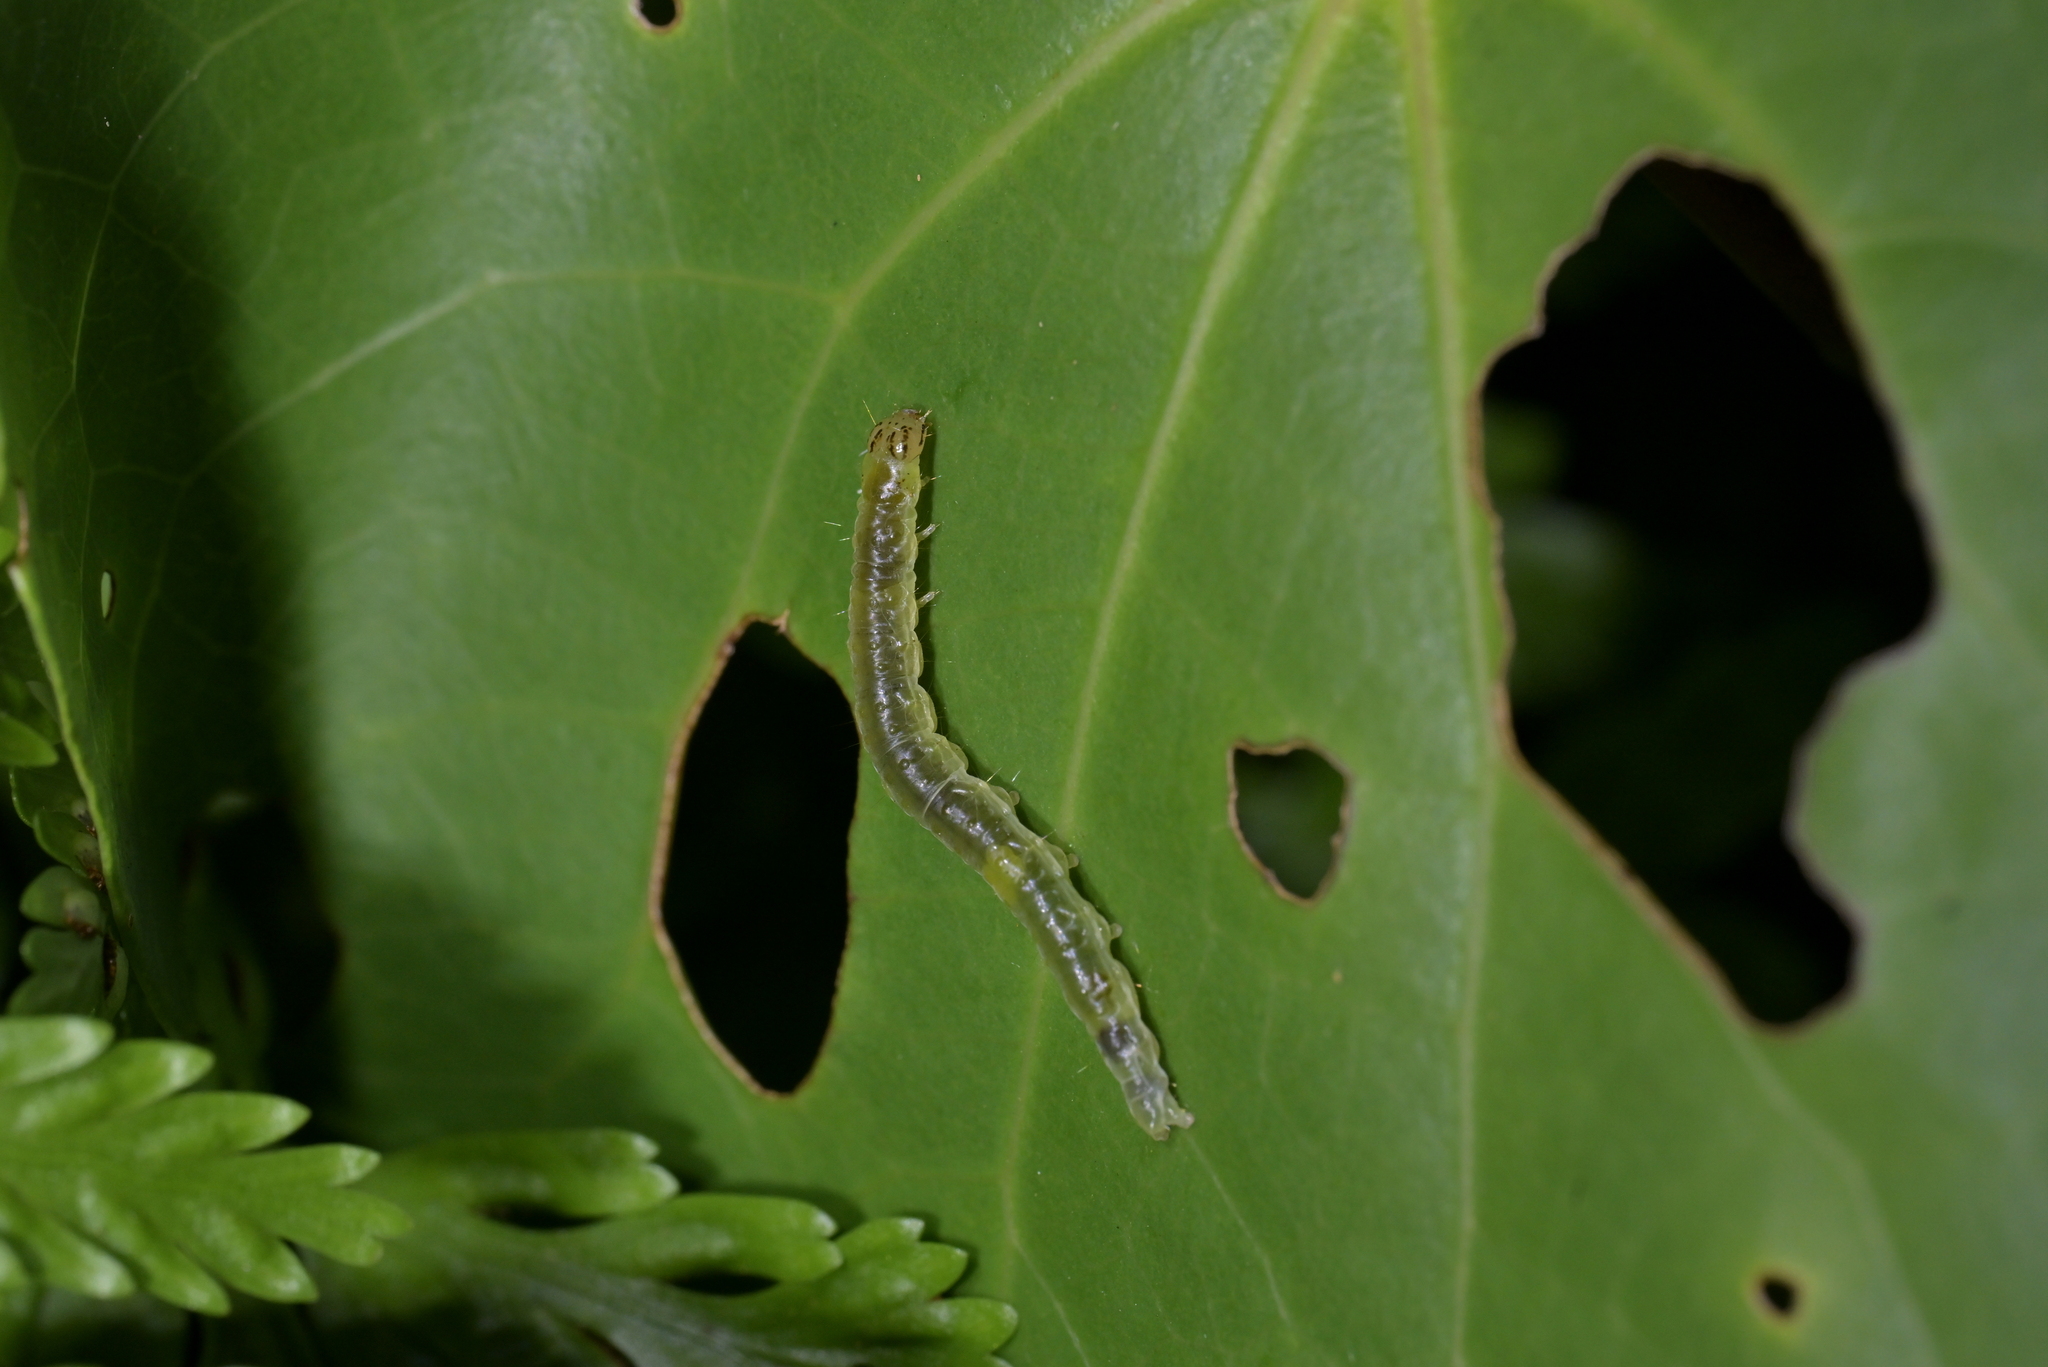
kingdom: Animalia
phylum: Arthropoda
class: Insecta
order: Lepidoptera
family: Geometridae
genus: Cleora
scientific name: Cleora scriptaria
